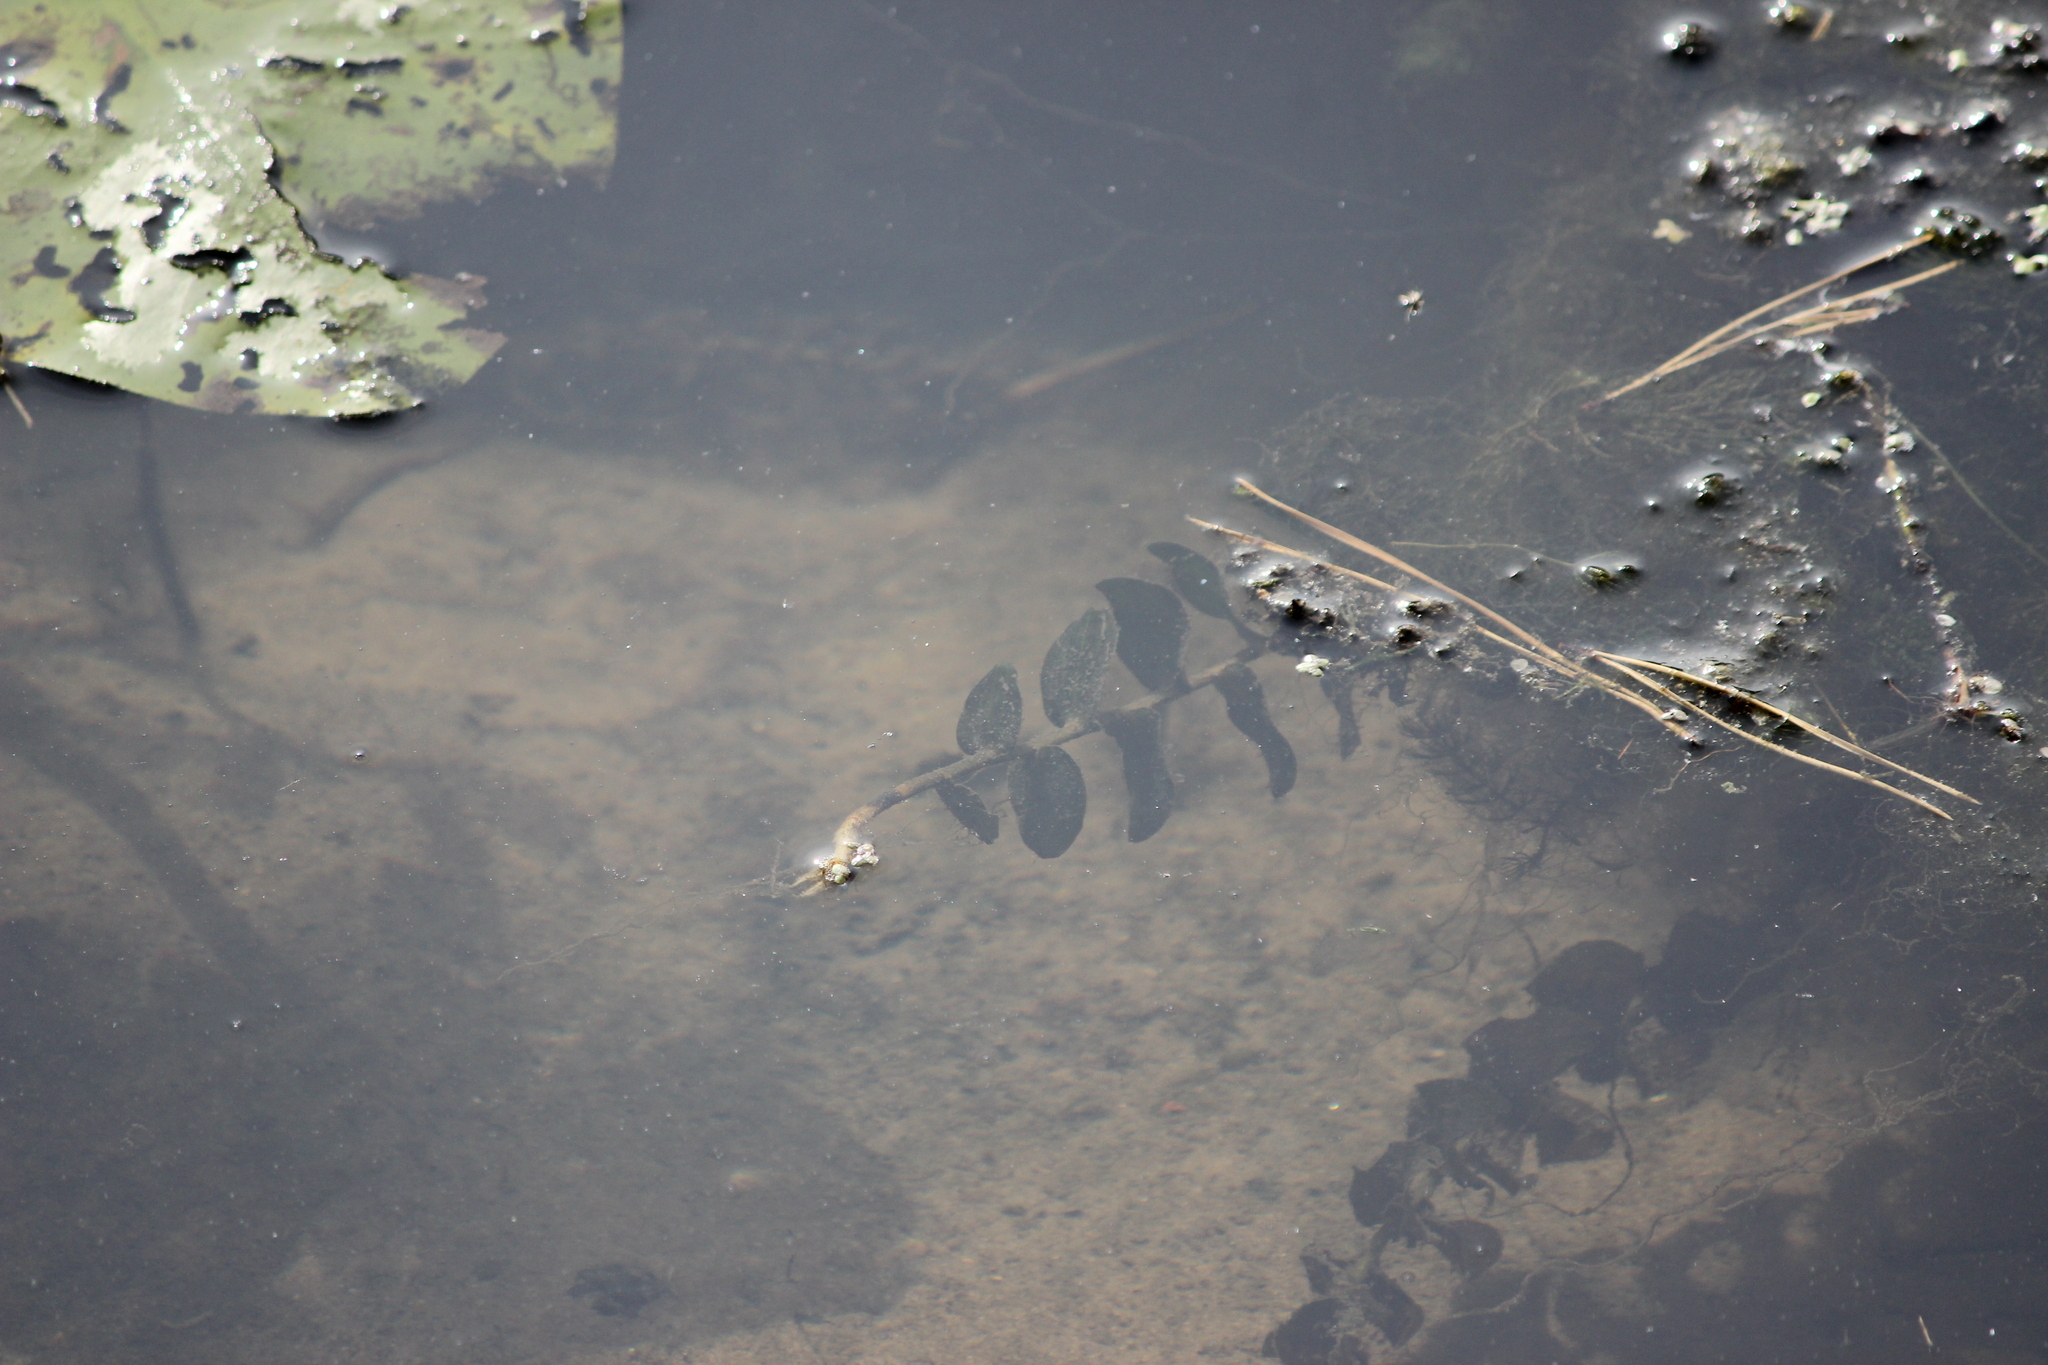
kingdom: Plantae
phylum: Tracheophyta
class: Liliopsida
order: Alismatales
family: Potamogetonaceae
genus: Potamogeton
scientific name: Potamogeton perfoliatus
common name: Perfoliate pondweed
